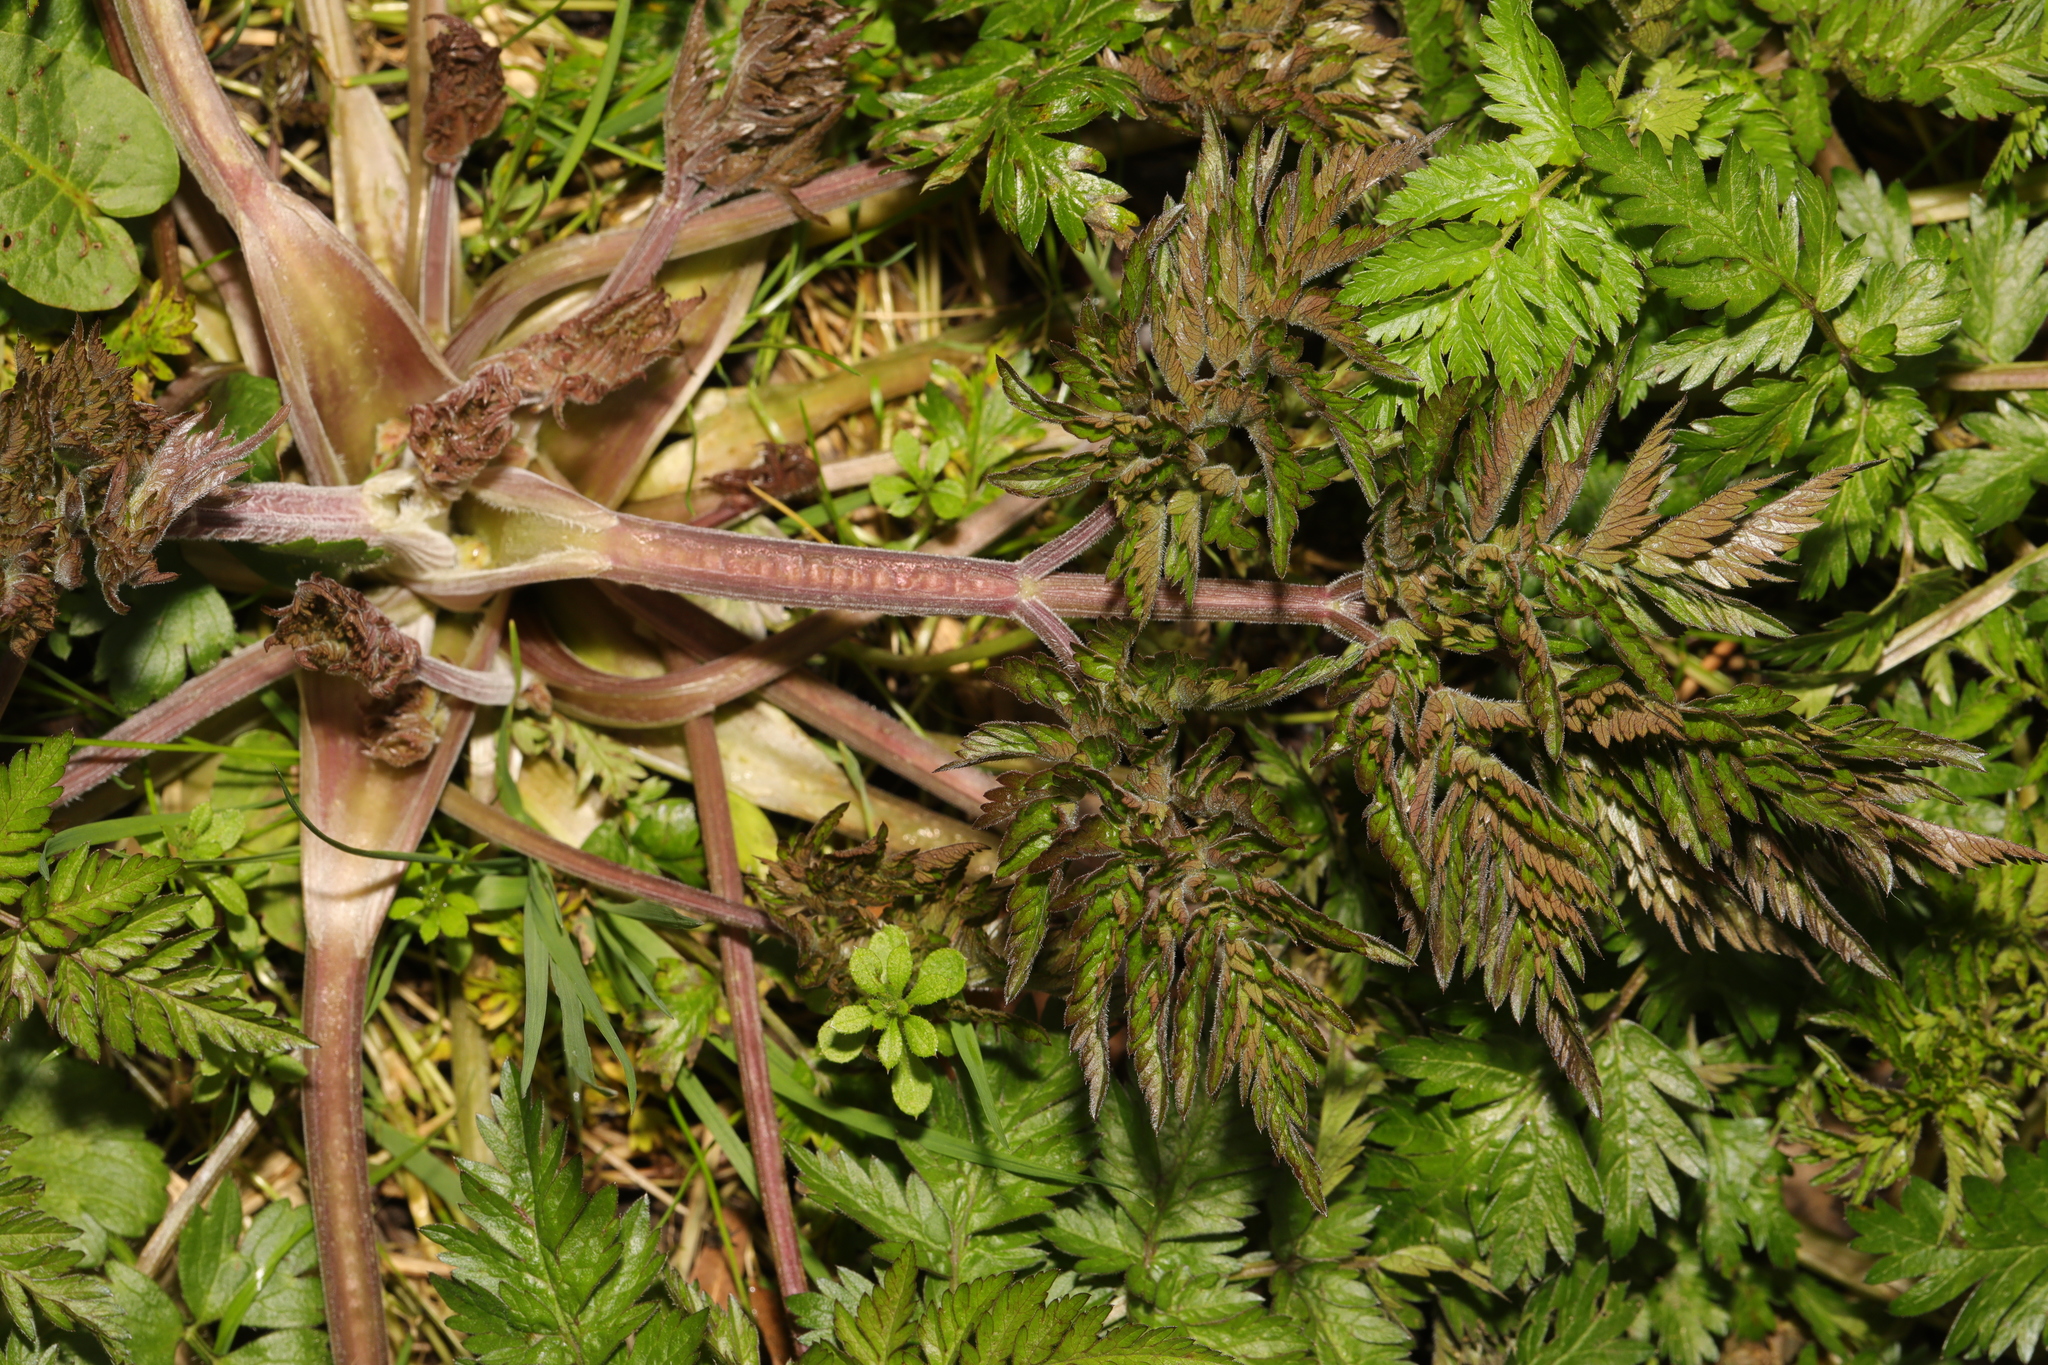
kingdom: Plantae
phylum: Tracheophyta
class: Magnoliopsida
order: Apiales
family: Apiaceae
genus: Anthriscus
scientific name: Anthriscus sylvestris
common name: Cow parsley
